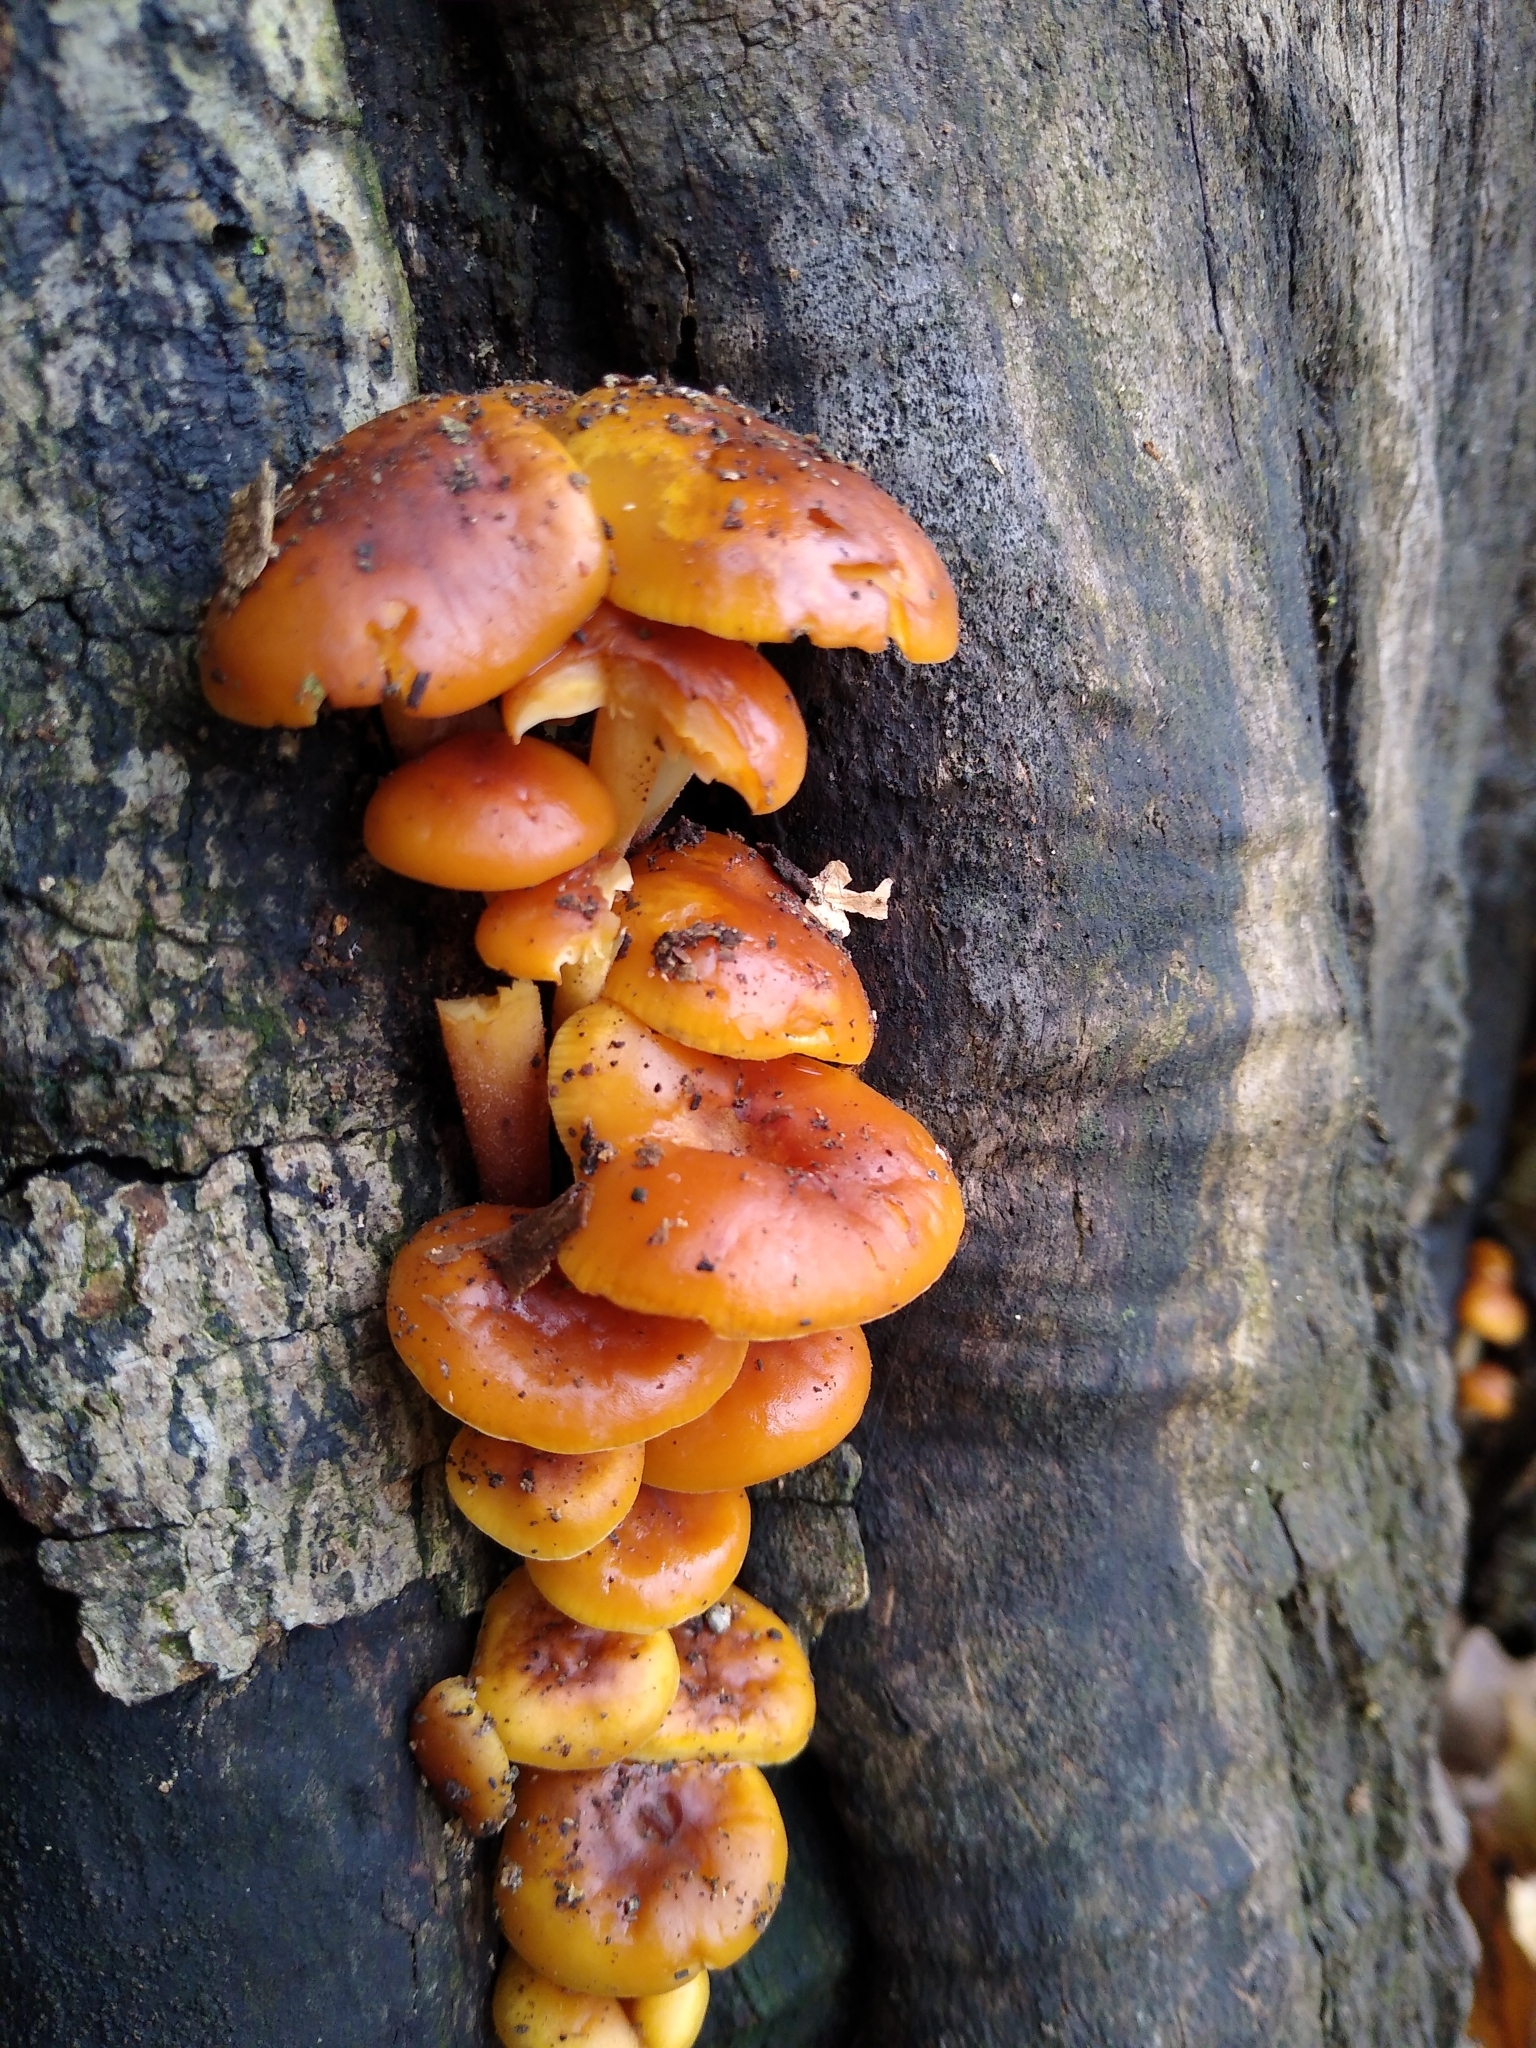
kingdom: Fungi
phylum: Basidiomycota
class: Agaricomycetes
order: Agaricales
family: Physalacriaceae
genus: Flammulina
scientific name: Flammulina velutipes
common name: Velvet shank
